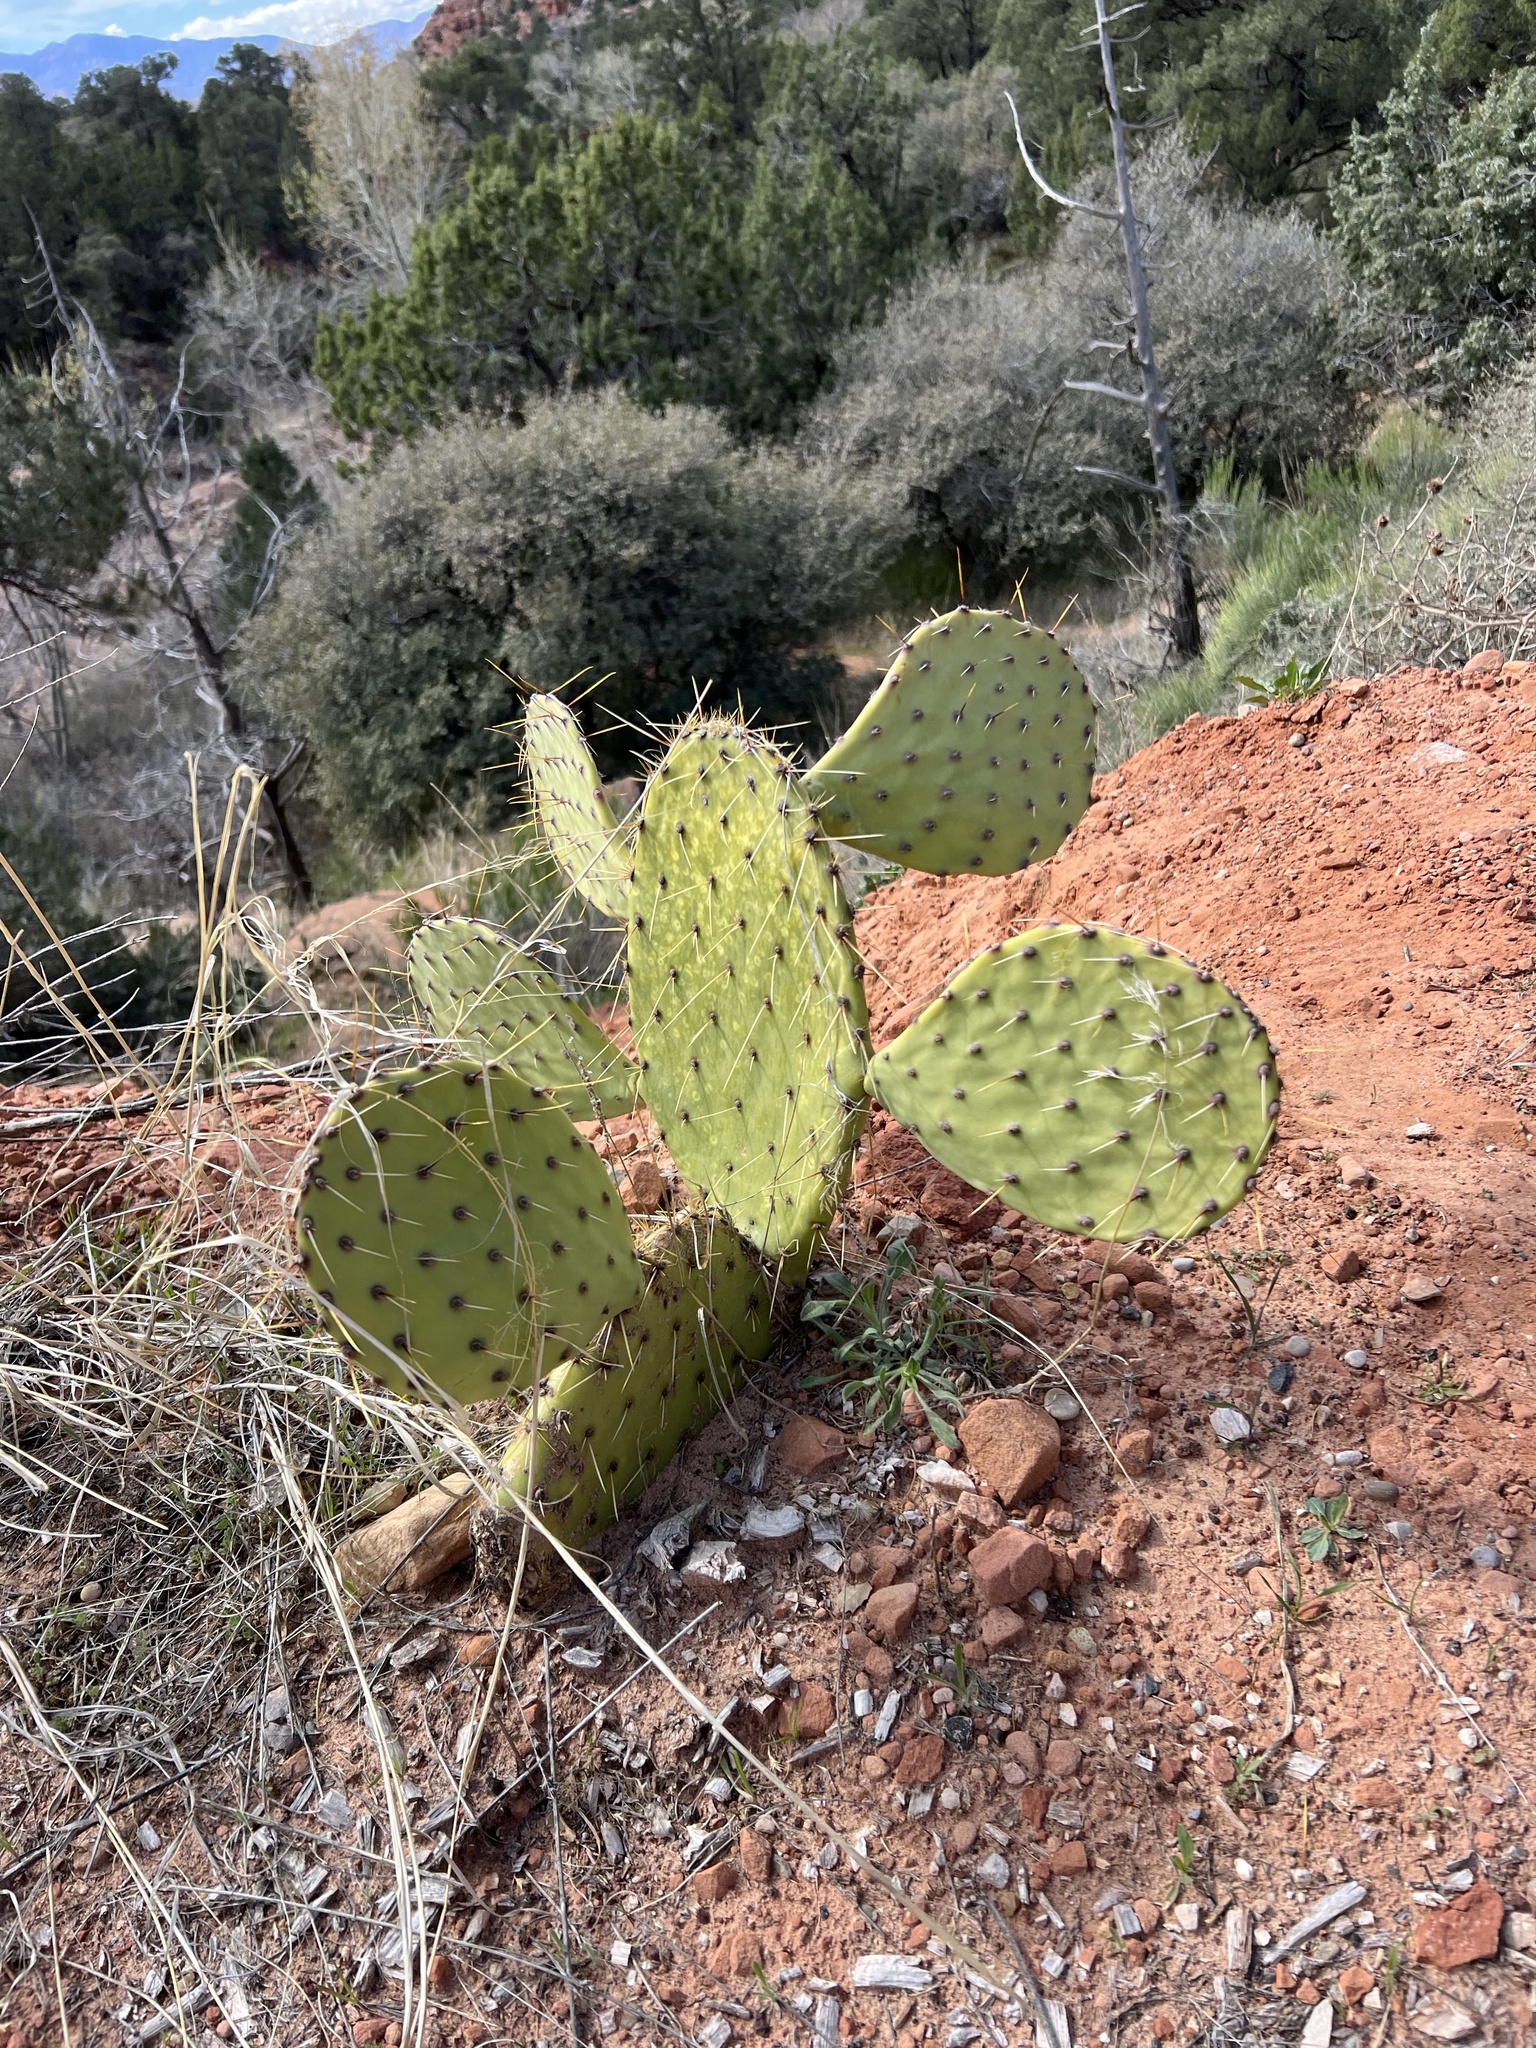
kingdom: Plantae
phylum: Tracheophyta
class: Magnoliopsida
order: Caryophyllales
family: Cactaceae
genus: Opuntia
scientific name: Opuntia engelmannii
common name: Cactus-apple
